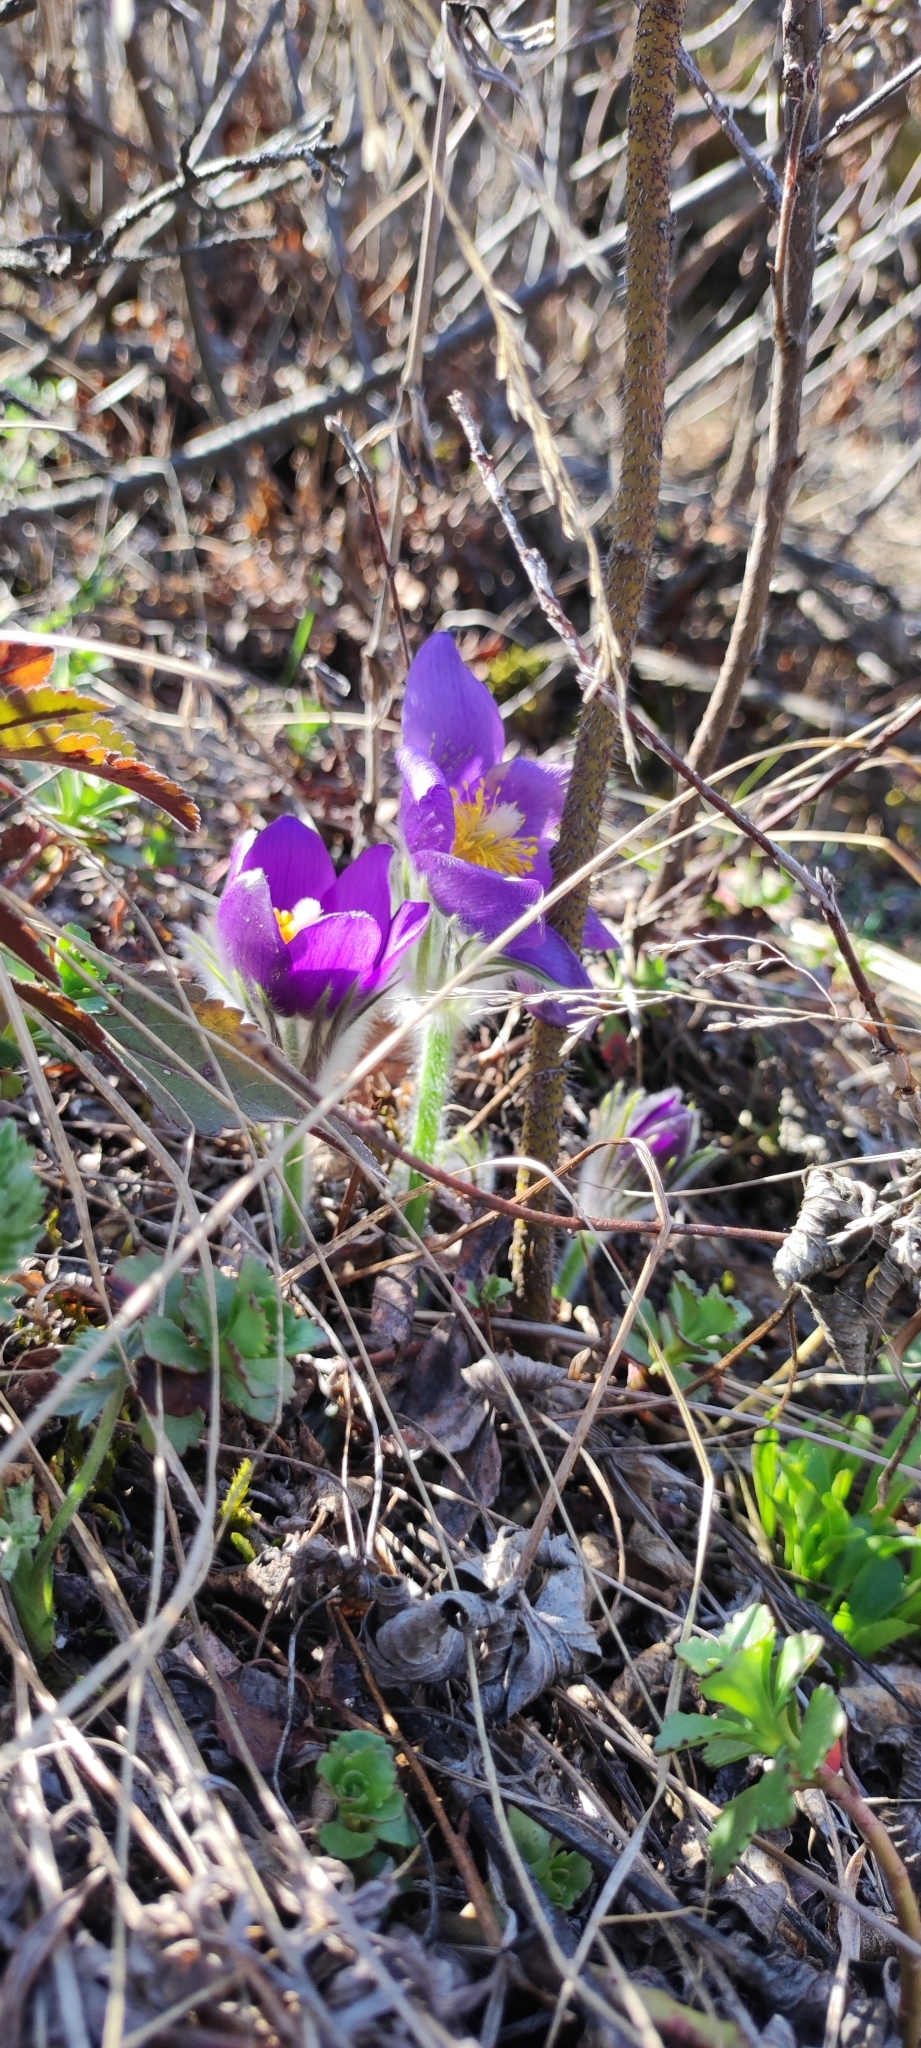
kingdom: Plantae
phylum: Tracheophyta
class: Magnoliopsida
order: Ranunculales
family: Ranunculaceae
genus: Pulsatilla
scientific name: Pulsatilla patens
